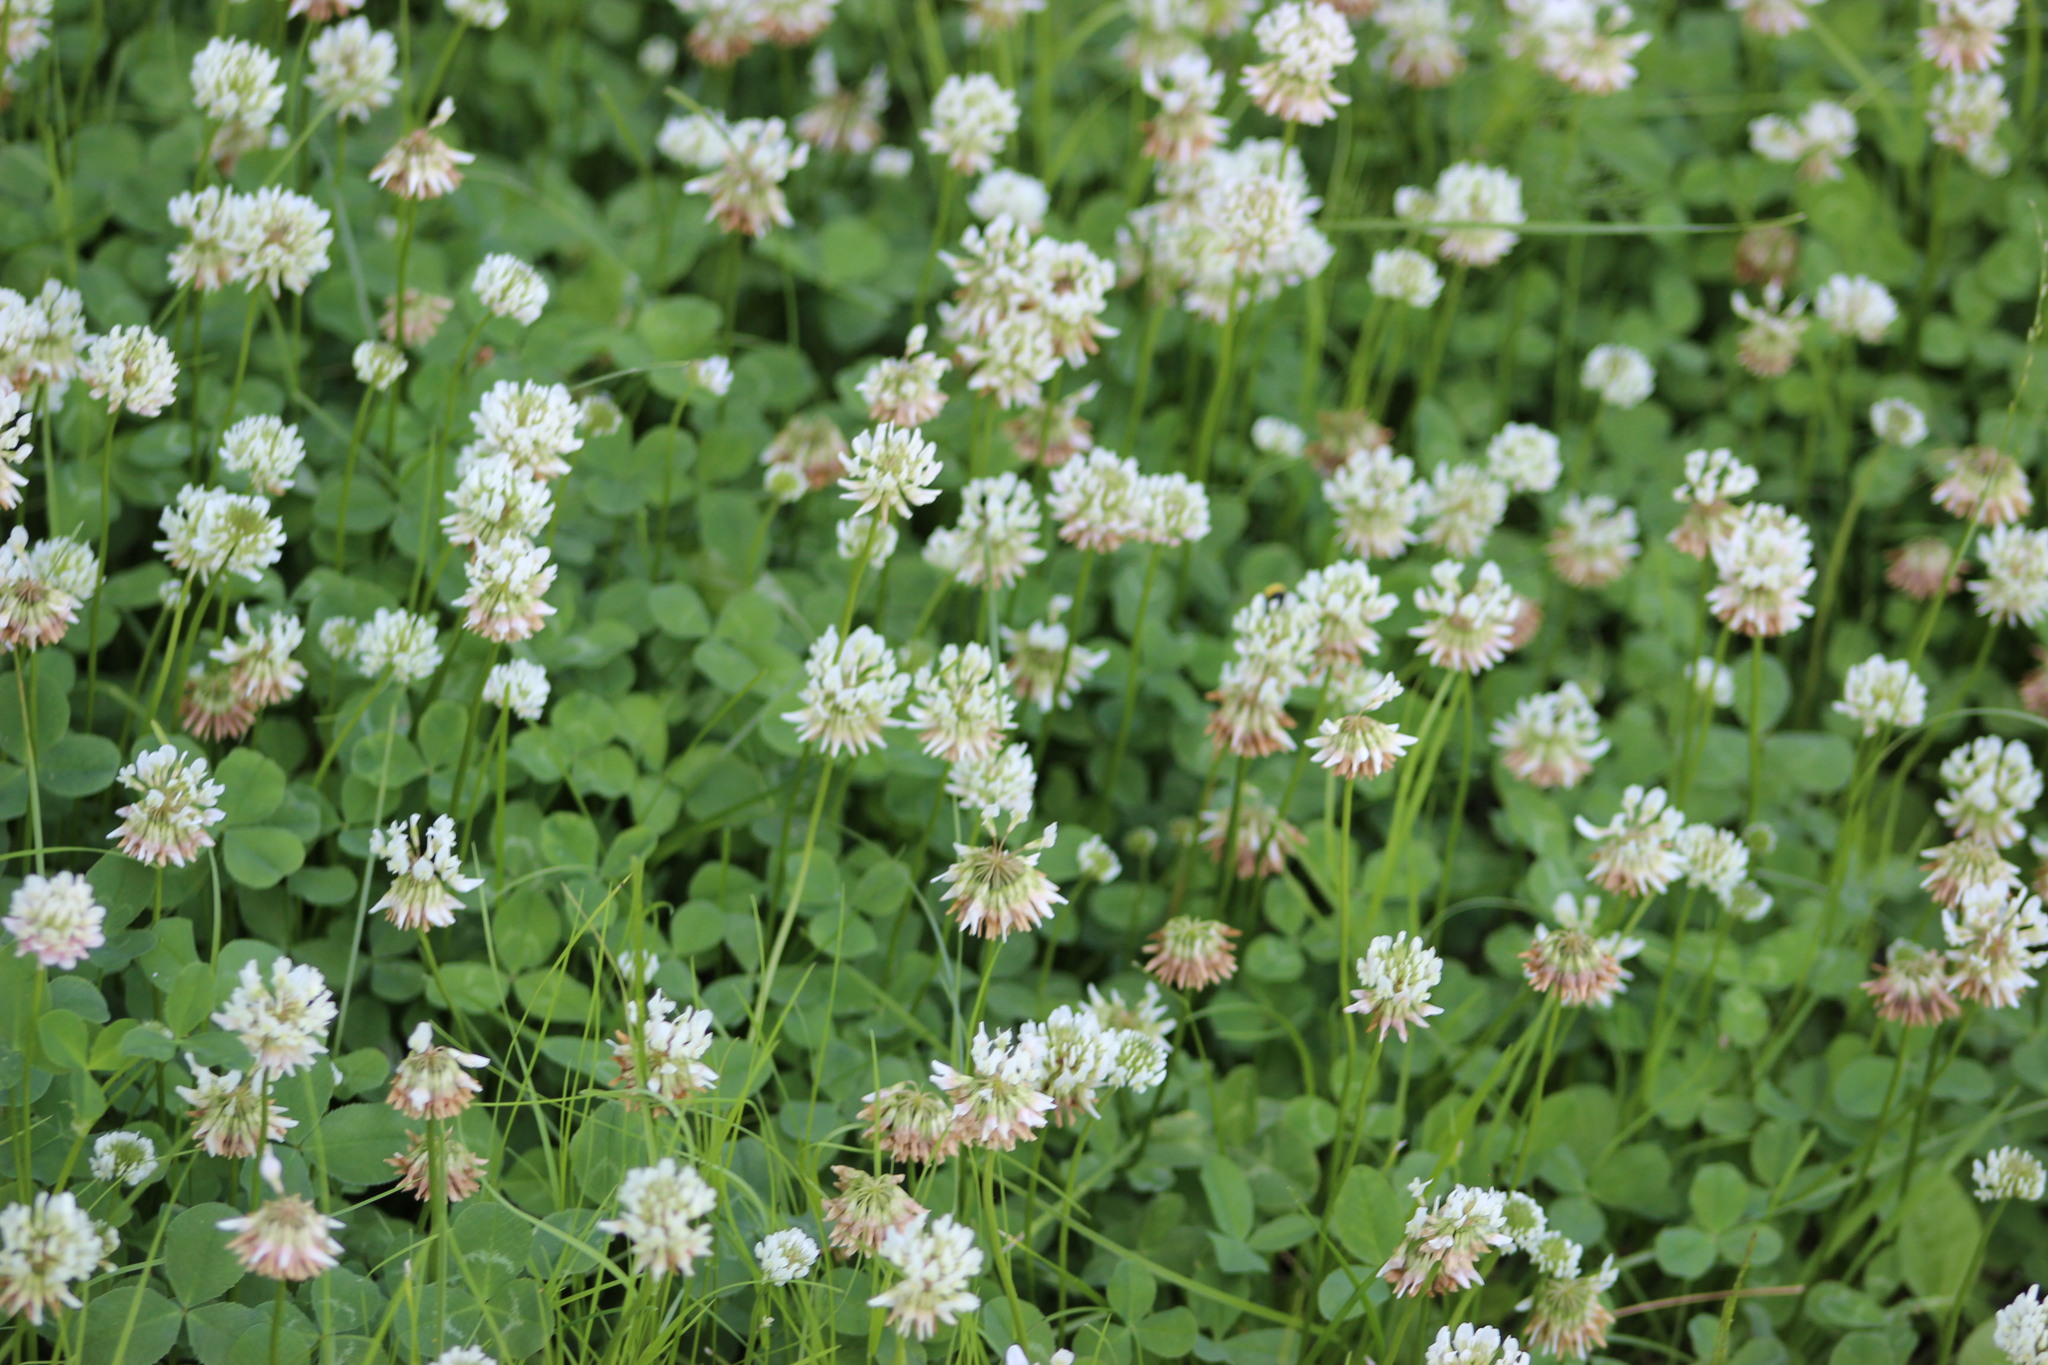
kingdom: Plantae
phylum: Tracheophyta
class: Magnoliopsida
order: Fabales
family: Fabaceae
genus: Trifolium
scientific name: Trifolium repens
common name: White clover
